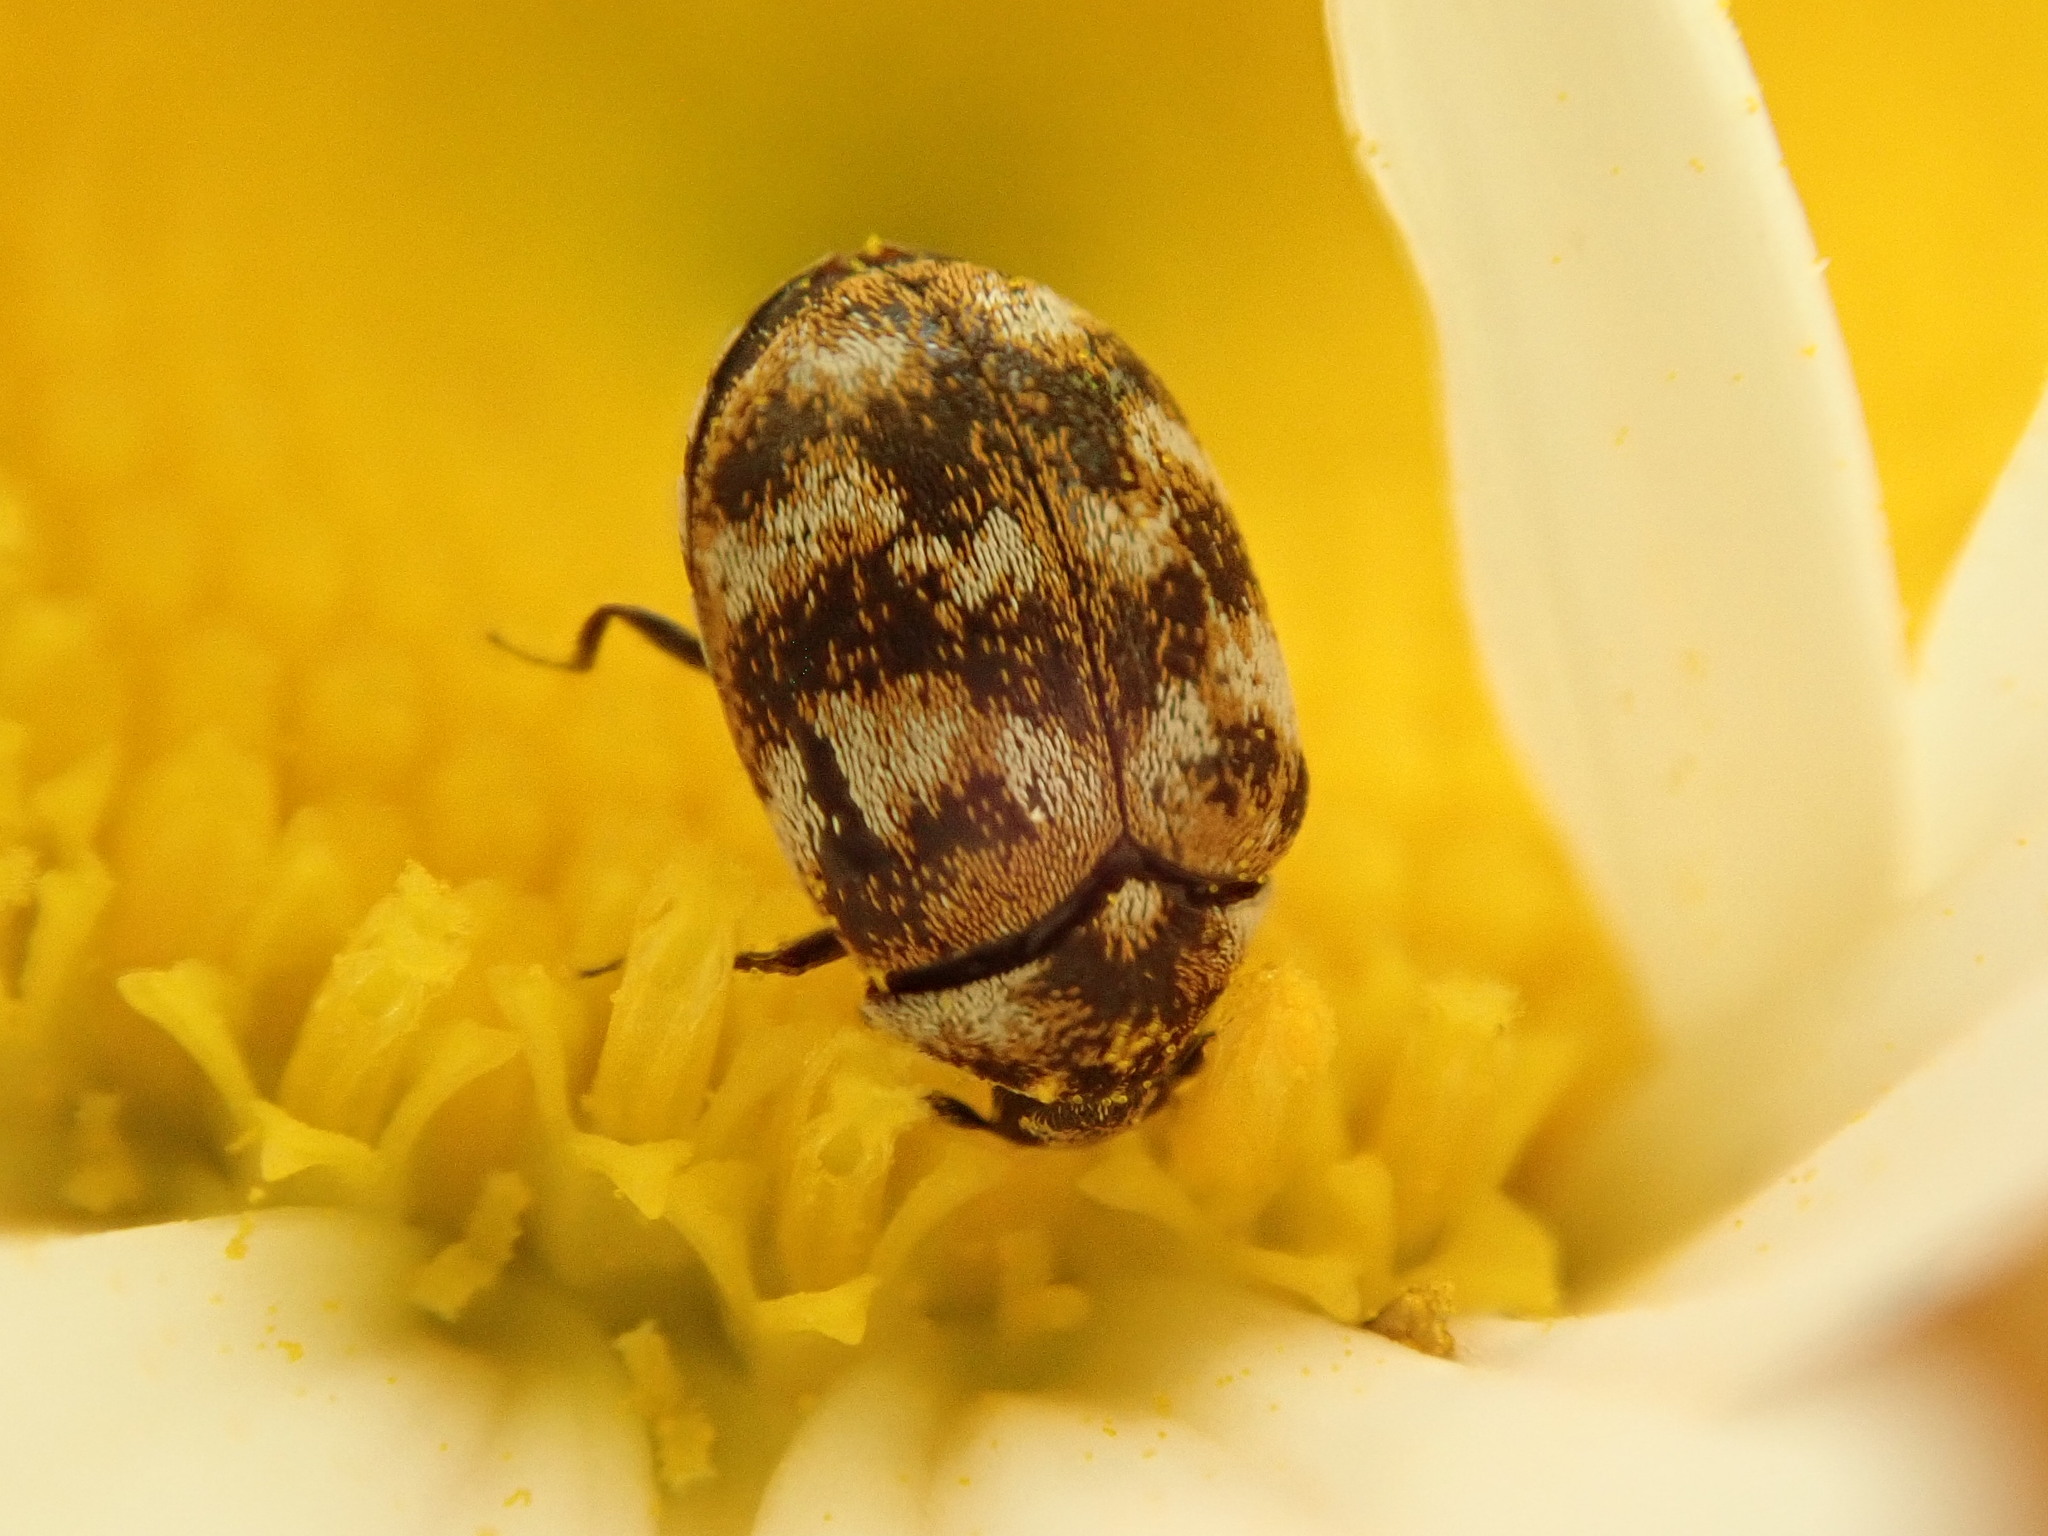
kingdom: Animalia
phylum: Arthropoda
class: Insecta
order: Coleoptera
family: Dermestidae
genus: Anthrenus
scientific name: Anthrenus verbasci
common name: Varied carpet beetle
